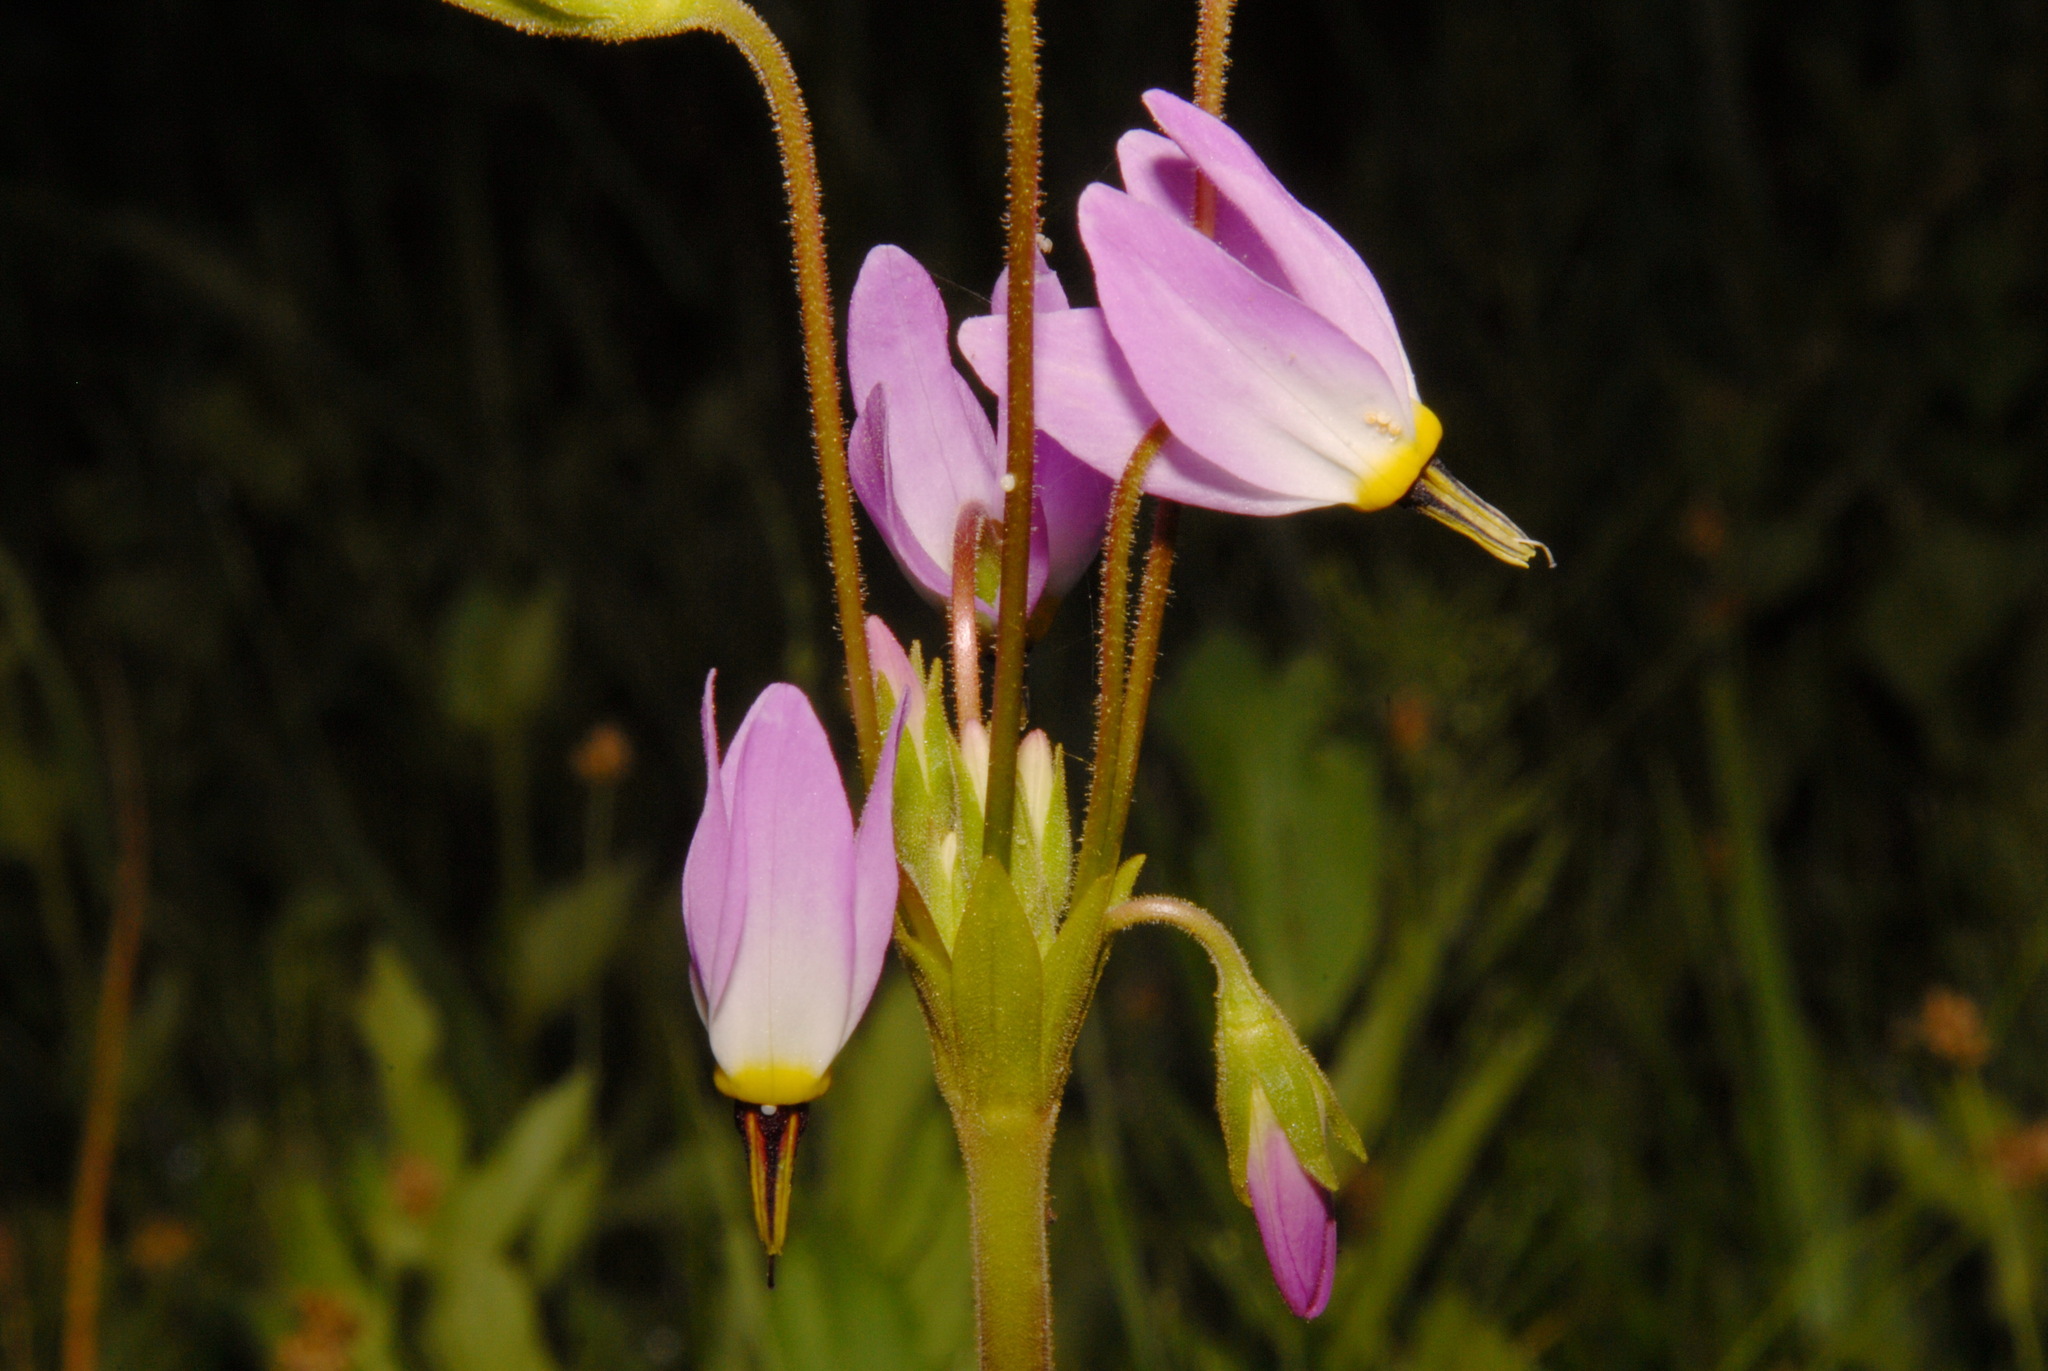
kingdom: Plantae
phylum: Tracheophyta
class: Magnoliopsida
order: Ericales
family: Primulaceae
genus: Dodecatheon
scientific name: Dodecatheon jeffreyanum
